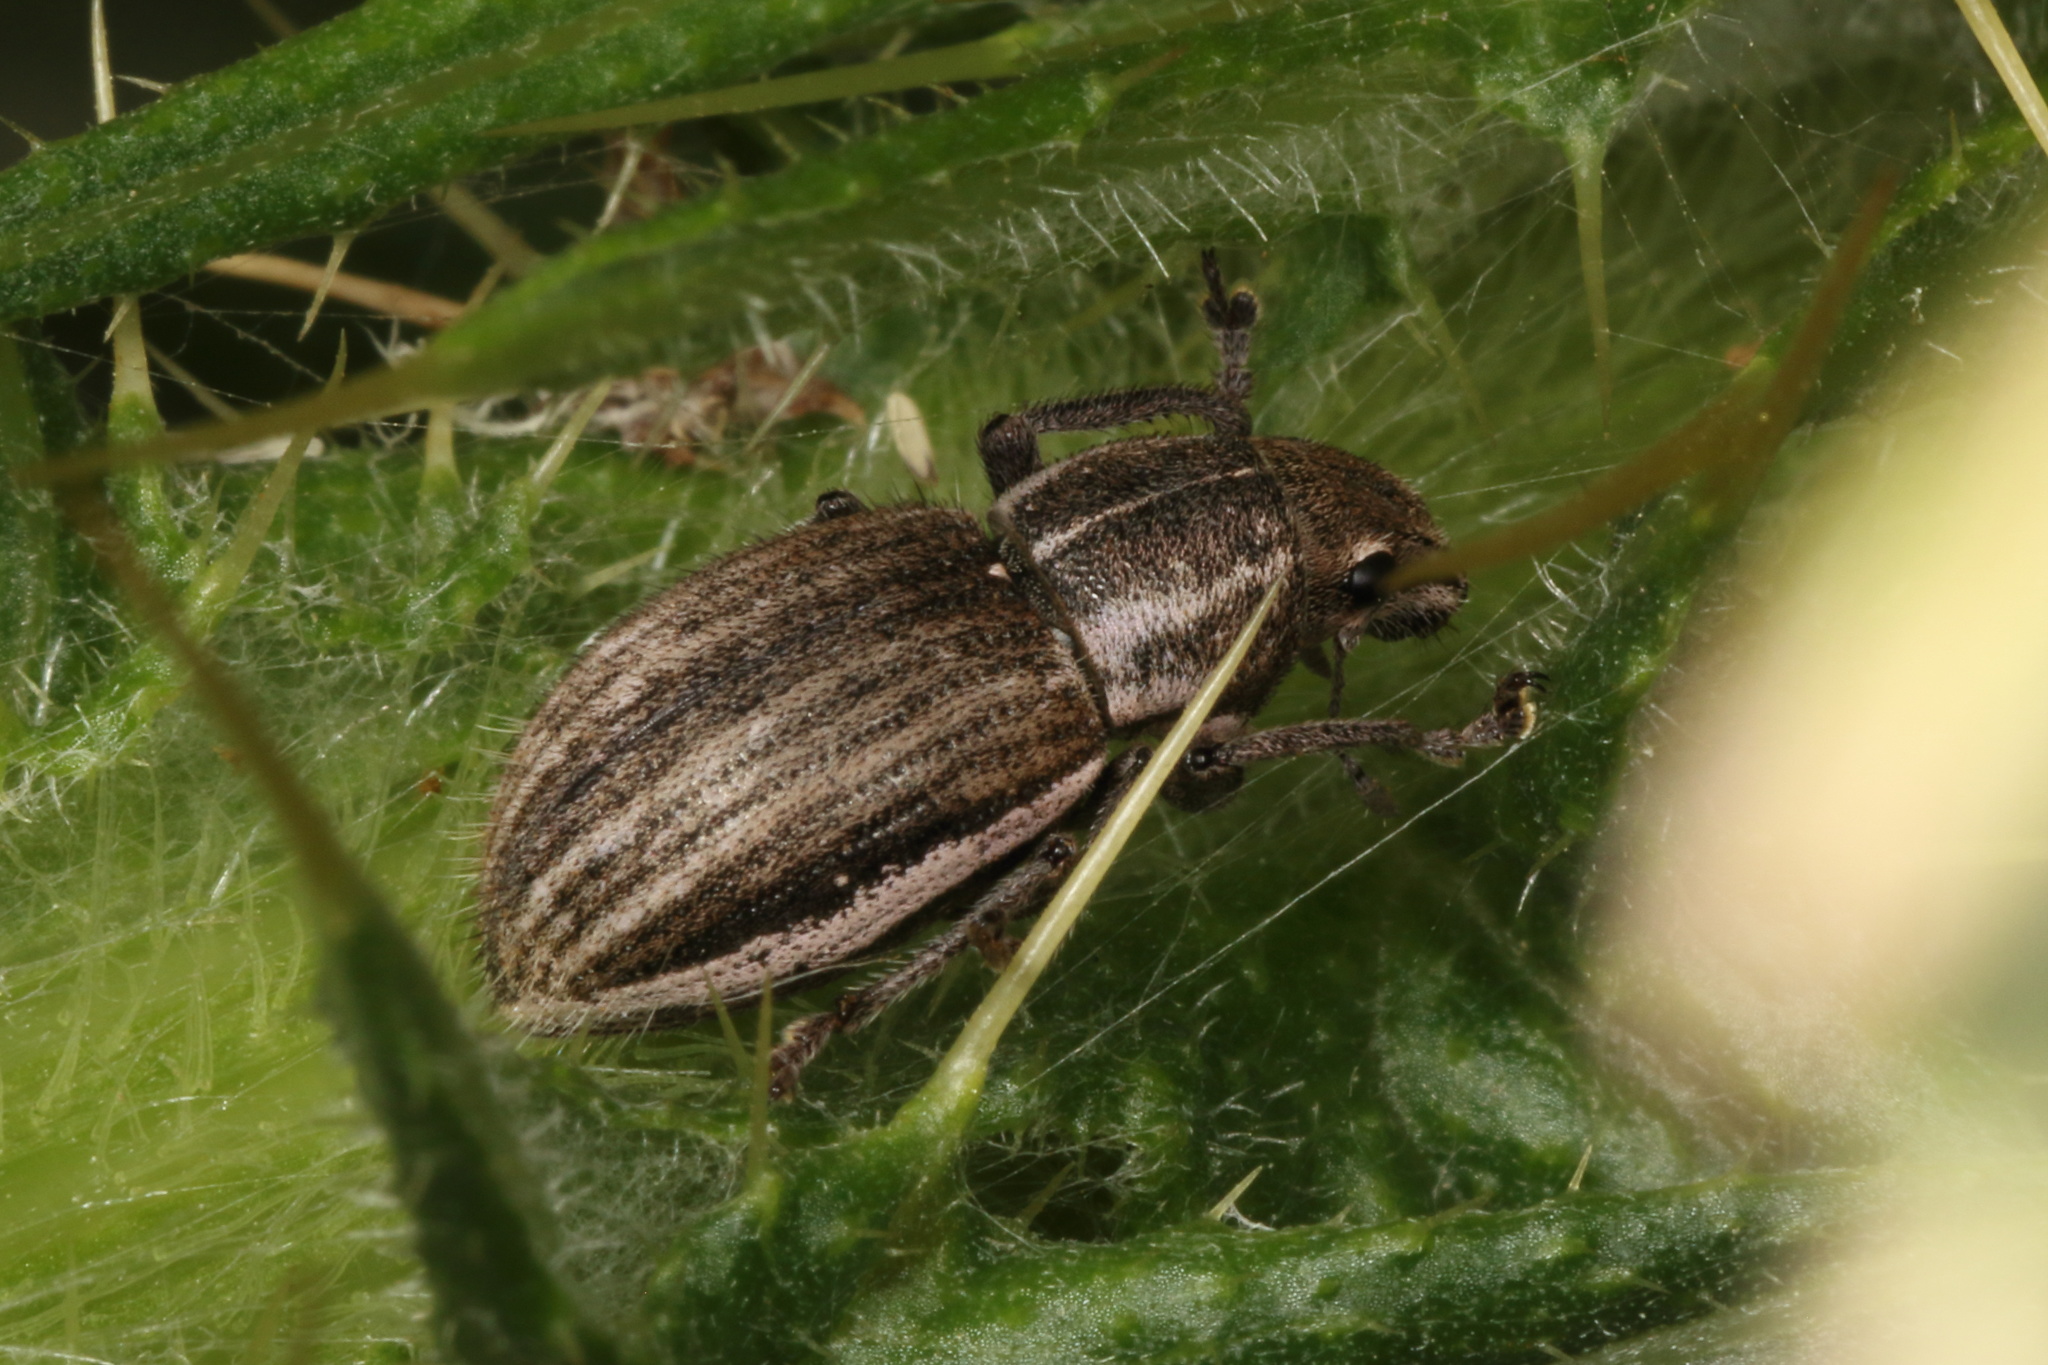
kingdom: Animalia
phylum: Arthropoda
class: Insecta
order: Coleoptera
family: Curculionidae
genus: Naupactus
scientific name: Naupactus leucoloma
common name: Whitefringed beetle
